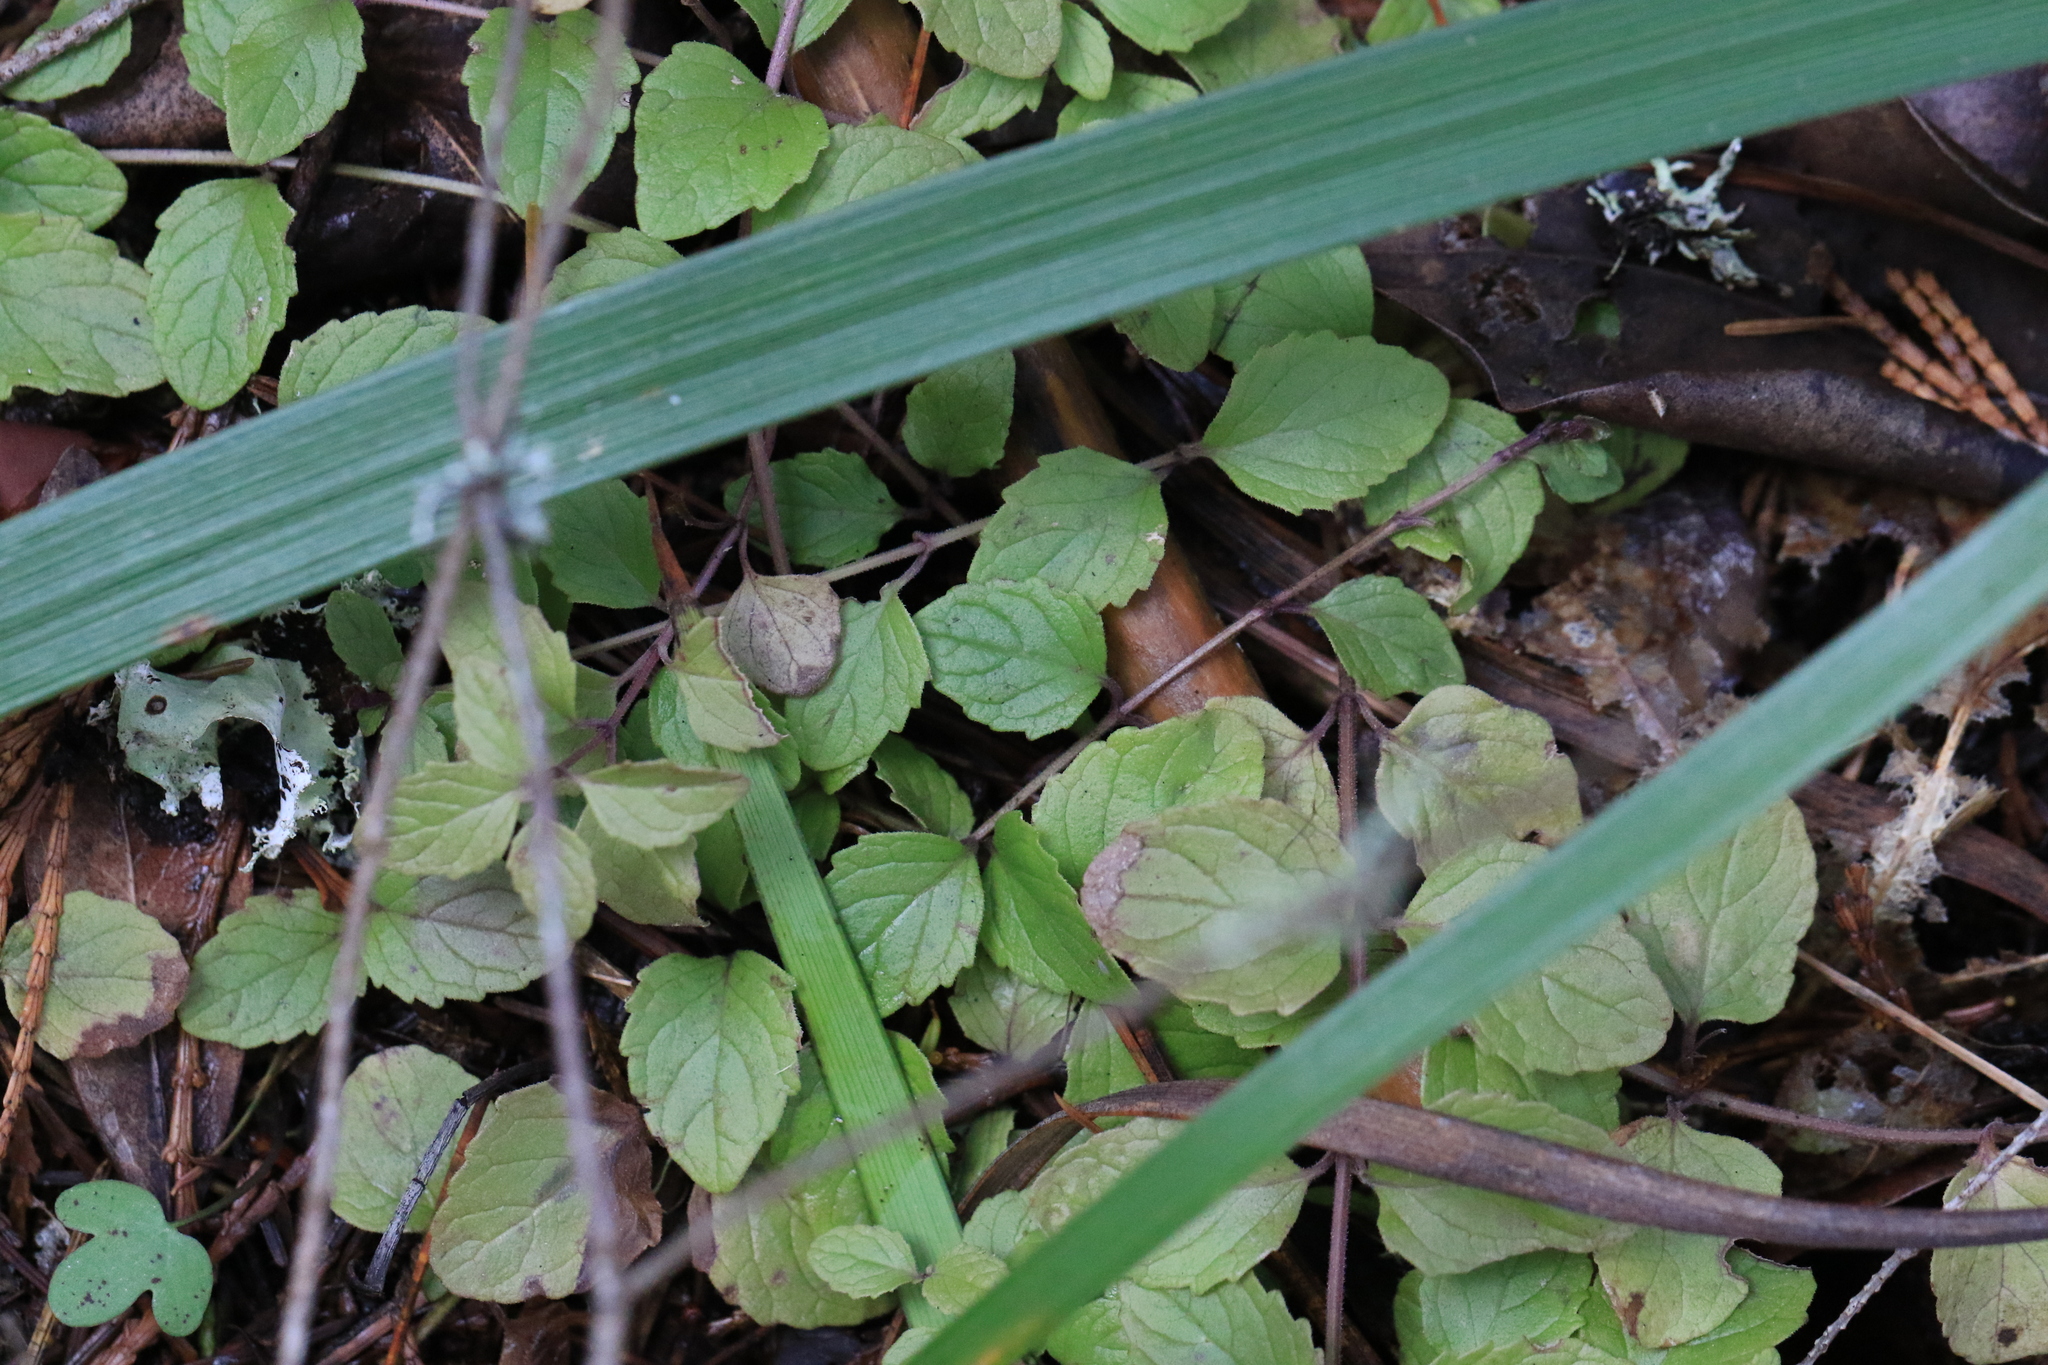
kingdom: Plantae
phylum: Tracheophyta
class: Magnoliopsida
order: Lamiales
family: Lamiaceae
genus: Micromeria
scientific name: Micromeria douglasii
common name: Yerba buena
